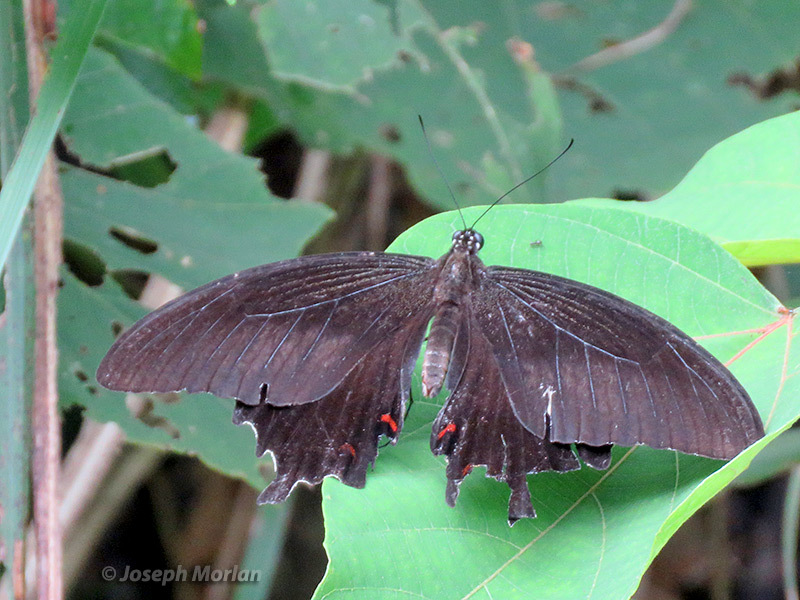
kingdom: Animalia
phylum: Arthropoda
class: Insecta
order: Lepidoptera
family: Papilionidae
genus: Papilio
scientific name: Papilio helenus
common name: Red helen
